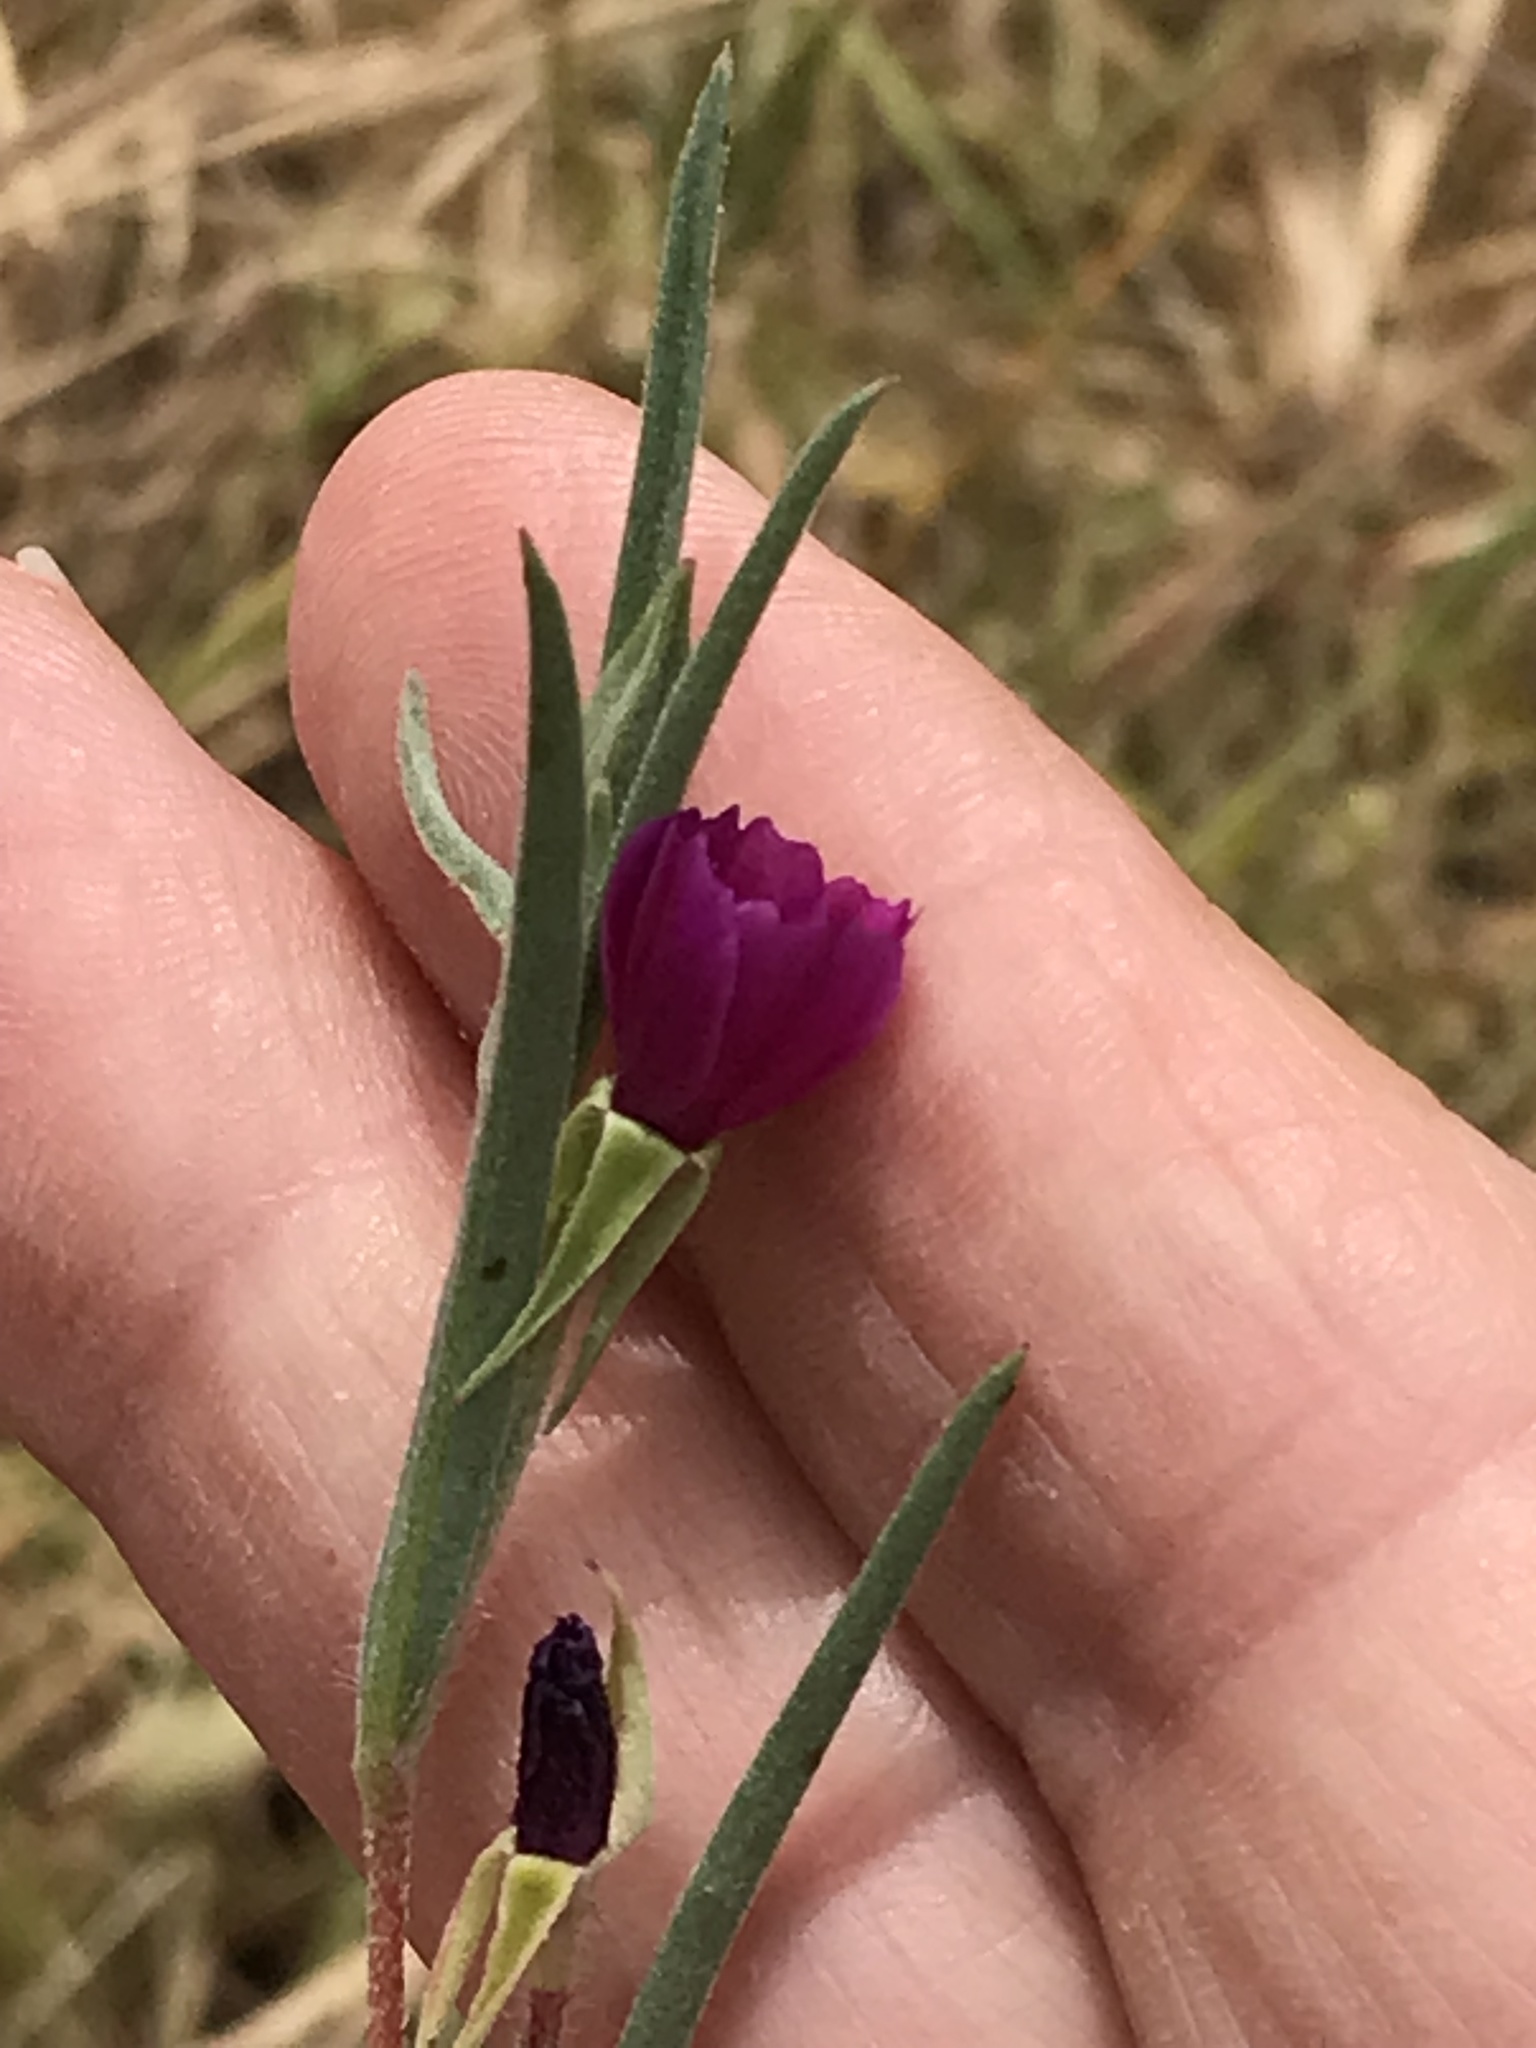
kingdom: Plantae
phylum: Tracheophyta
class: Magnoliopsida
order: Myrtales
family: Onagraceae
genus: Clarkia
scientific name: Clarkia purpurea
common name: Purple clarkia
